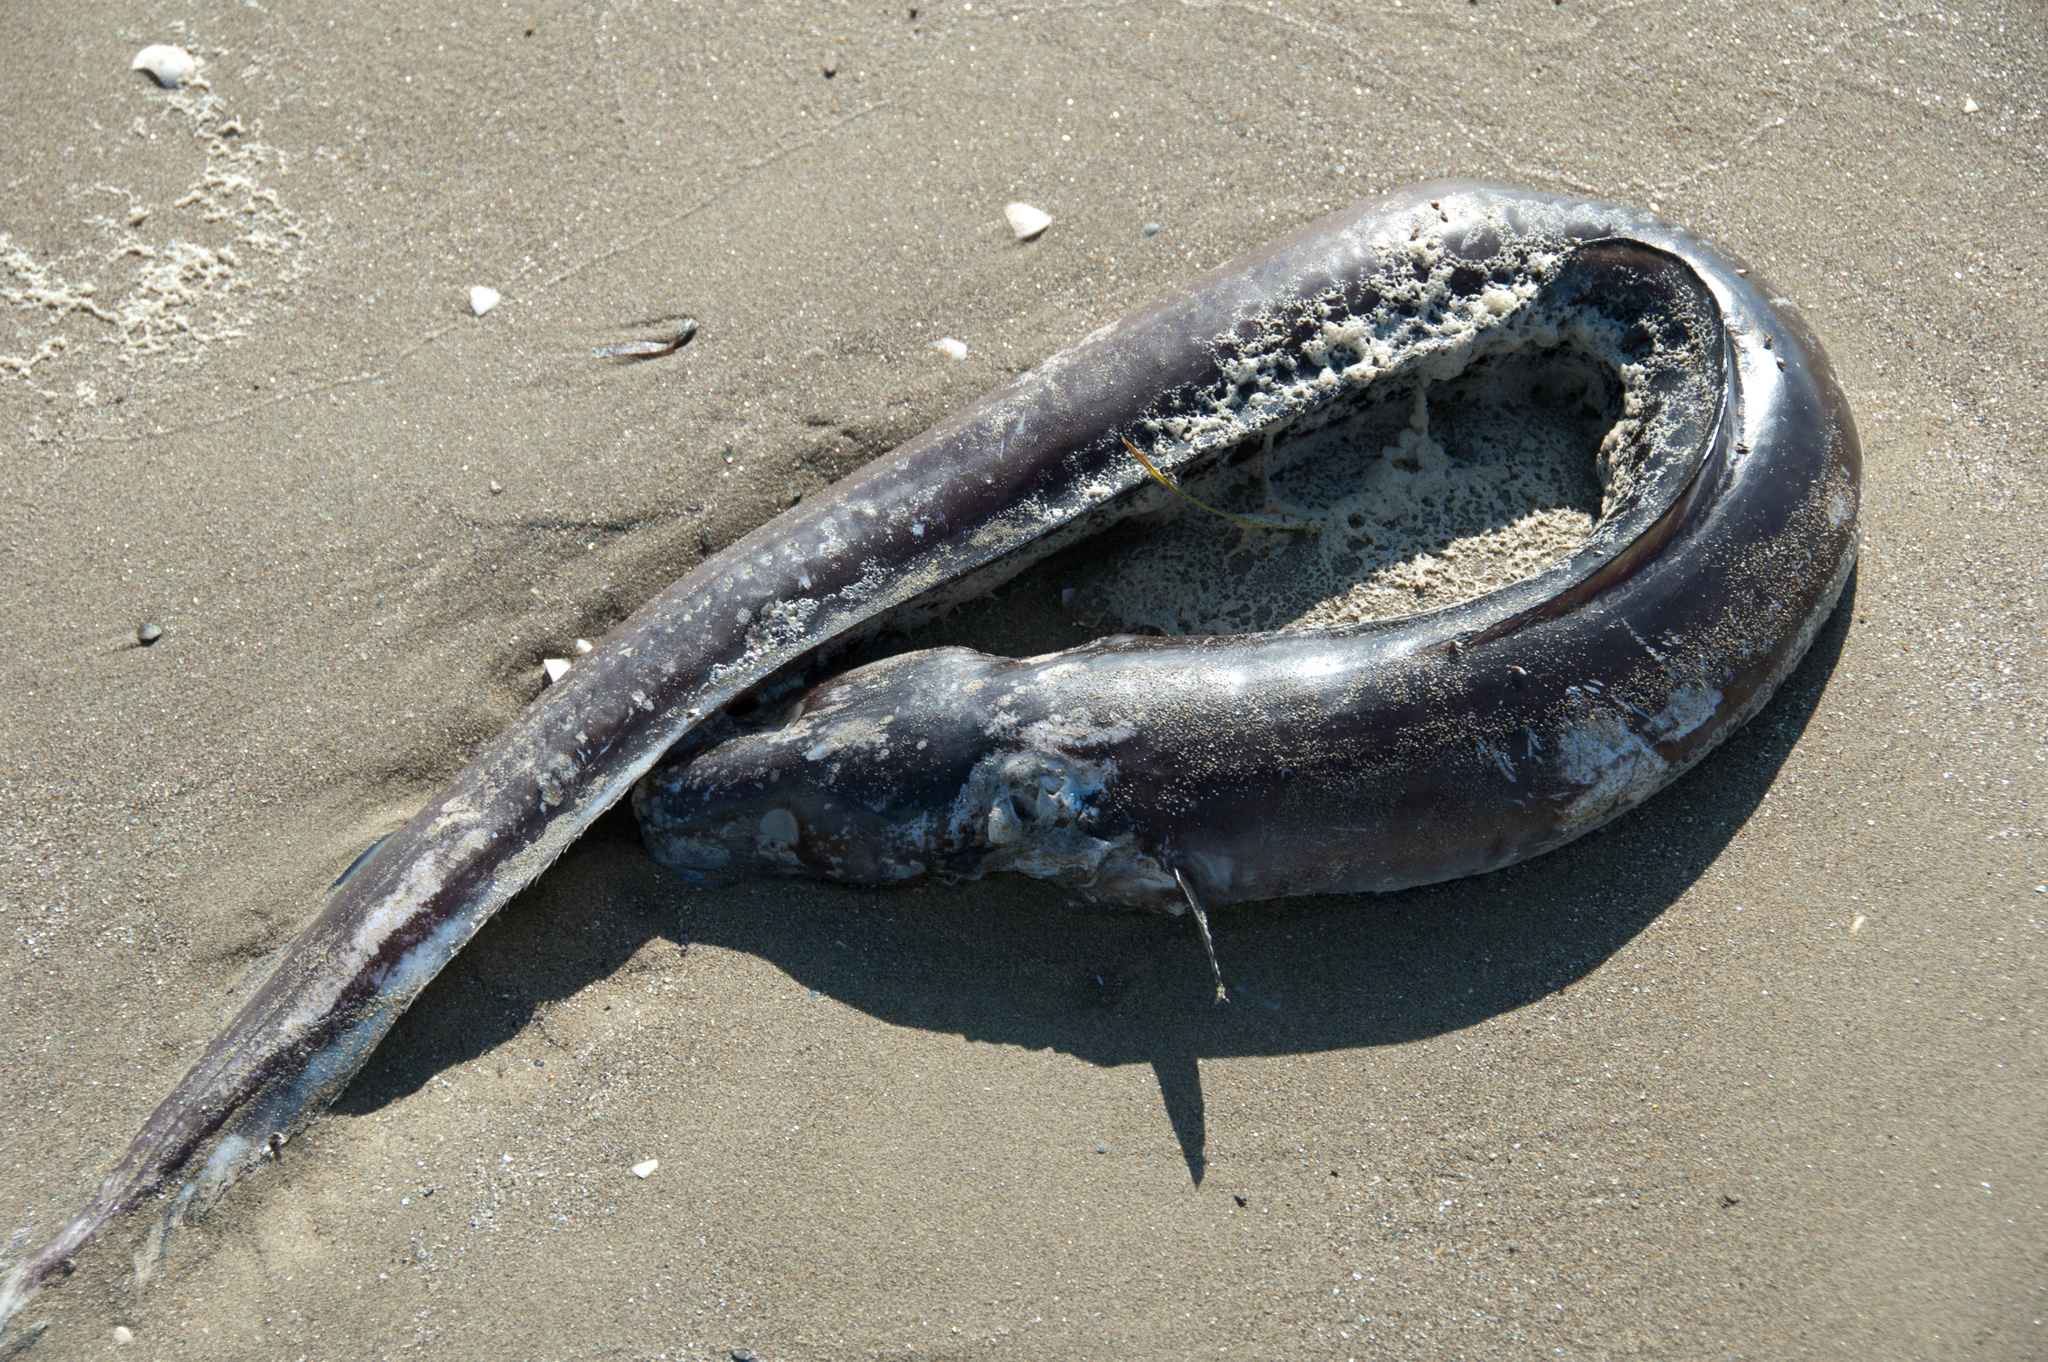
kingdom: Animalia
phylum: Chordata
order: Anguilliformes
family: Congridae
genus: Conger
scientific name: Conger conger
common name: Conger eel
